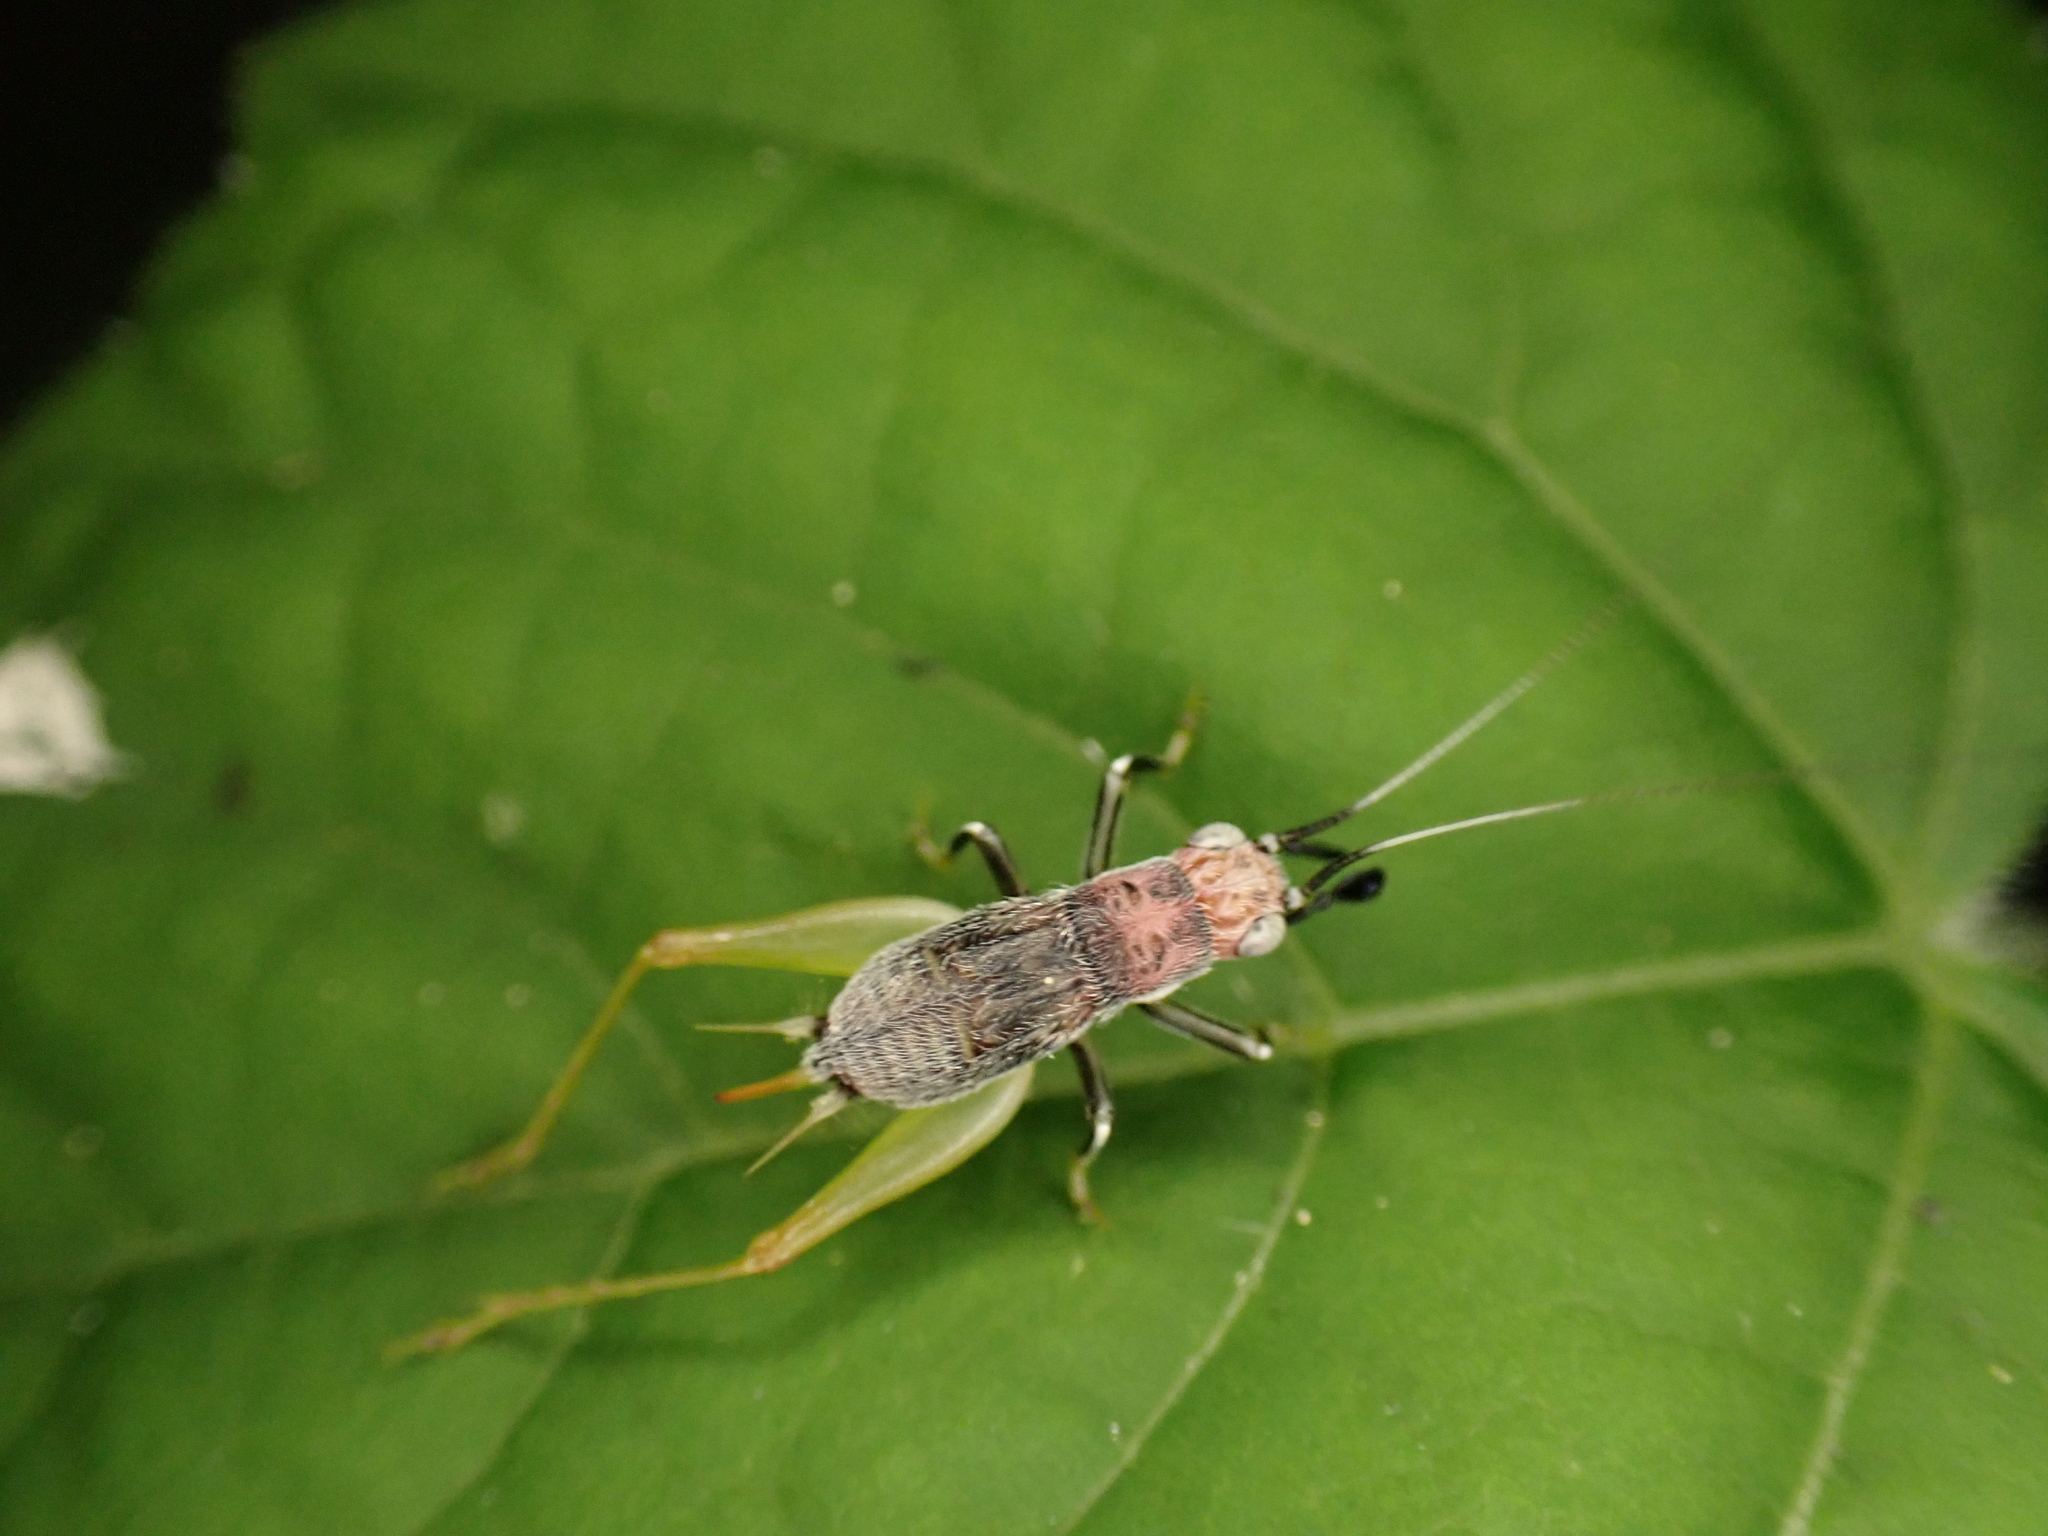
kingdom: Animalia
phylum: Arthropoda
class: Insecta
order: Orthoptera
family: Trigonidiidae
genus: Phyllopalpus
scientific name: Phyllopalpus pulchellus
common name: Handsome trig
